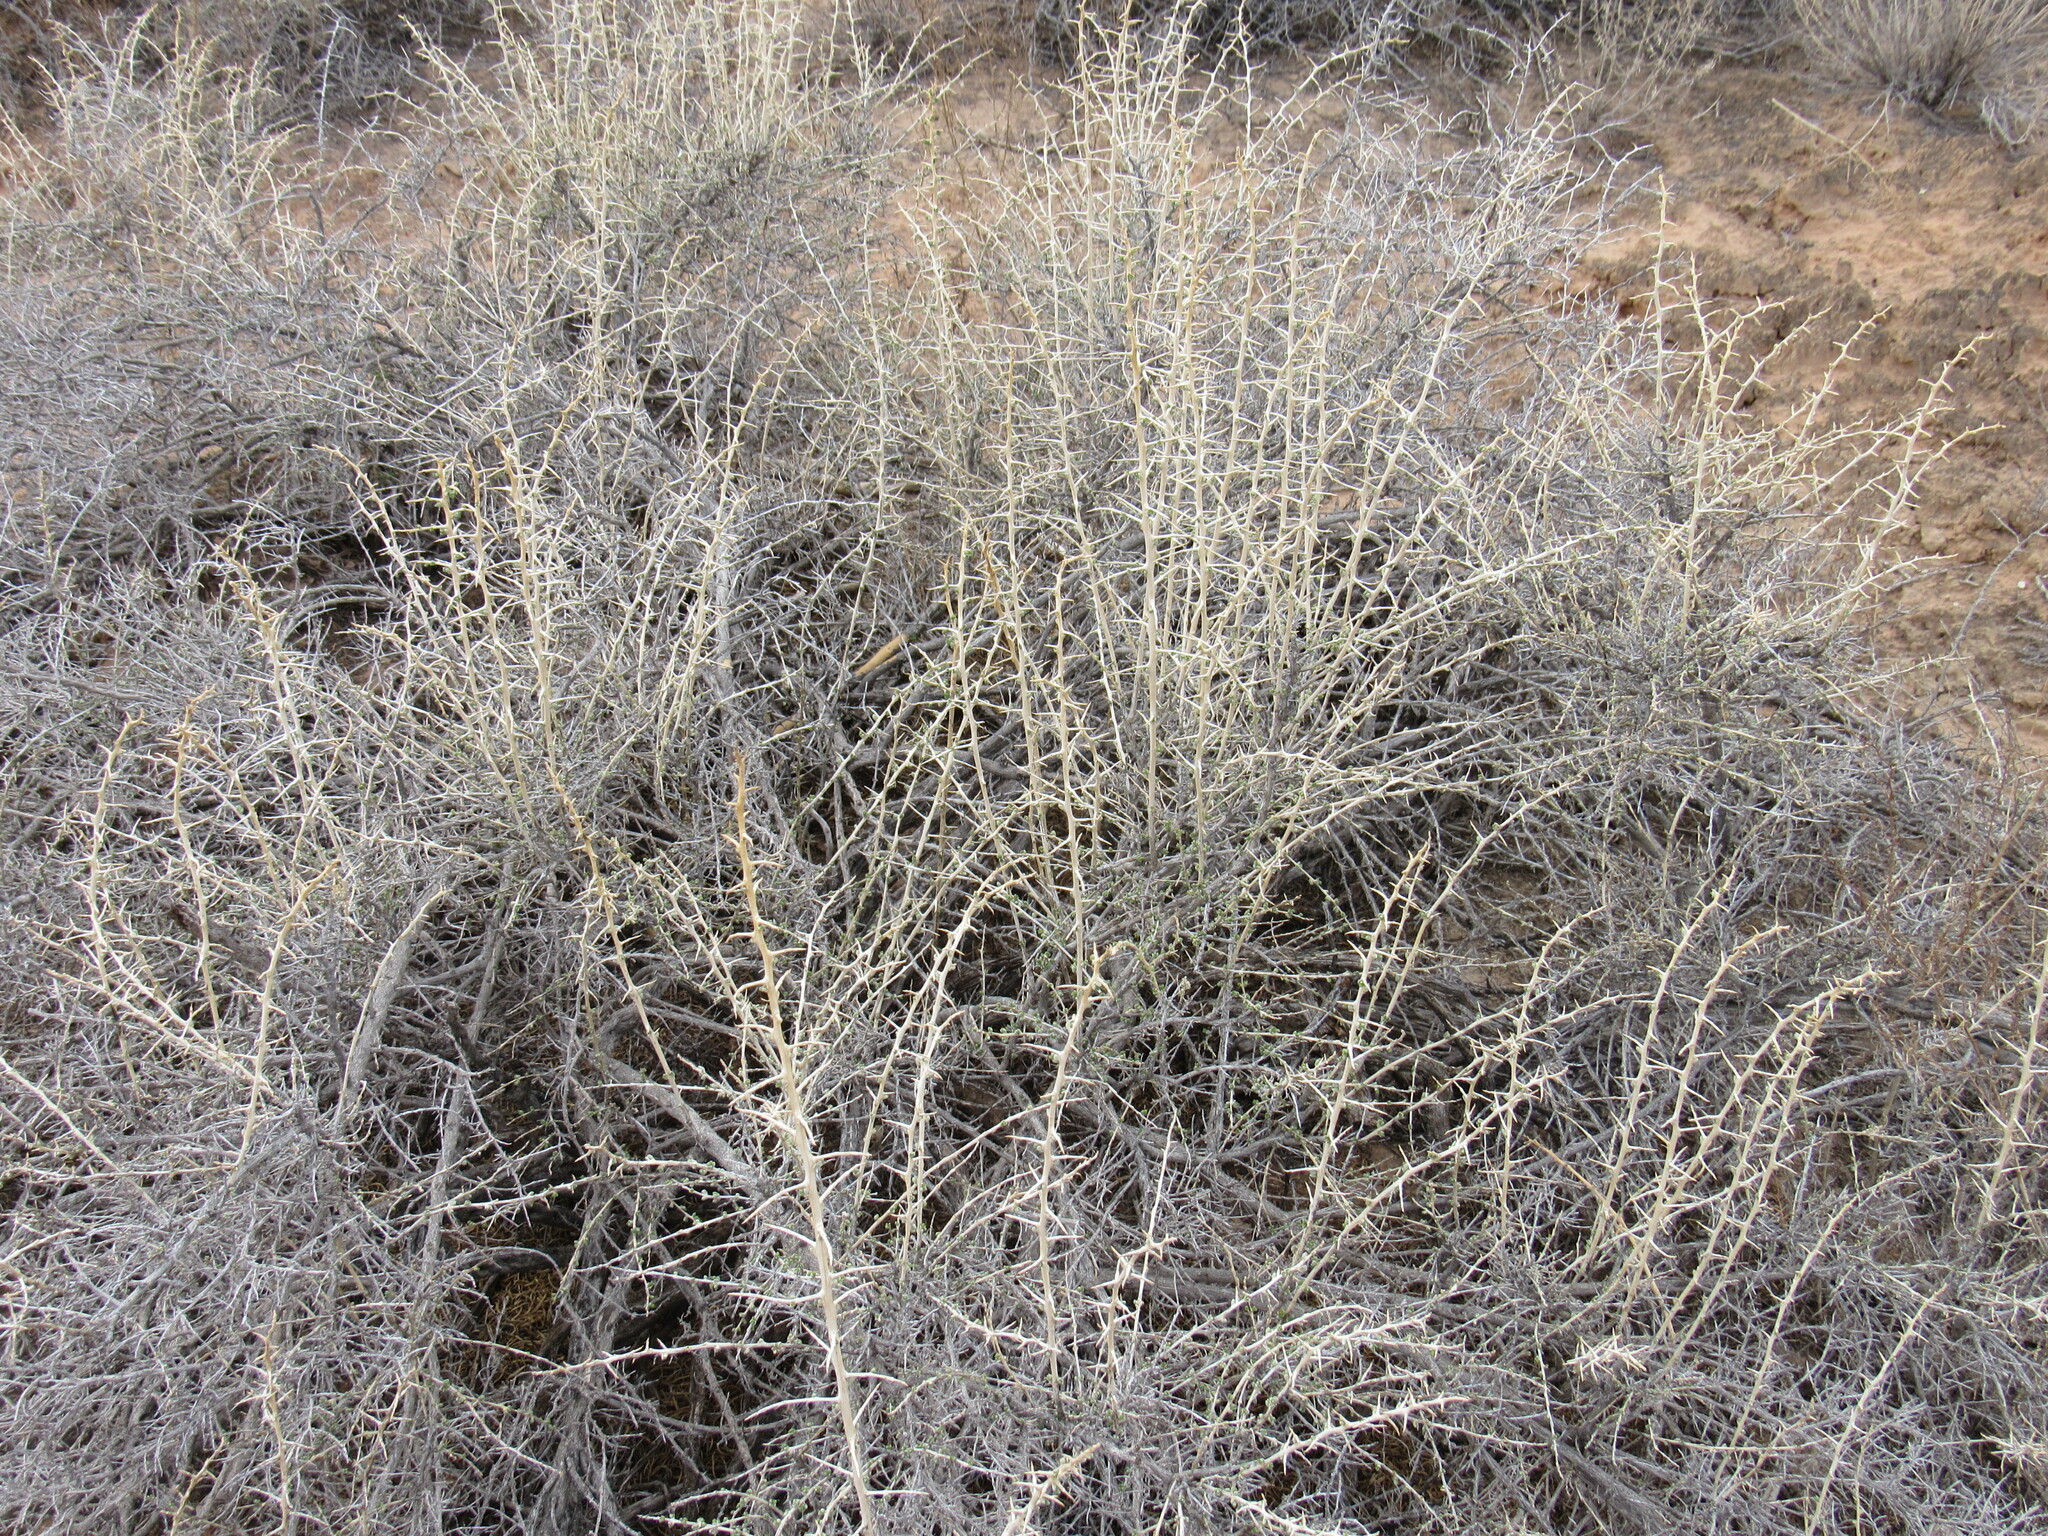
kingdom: Plantae
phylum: Tracheophyta
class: Magnoliopsida
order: Caryophyllales
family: Sarcobataceae
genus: Sarcobatus
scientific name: Sarcobatus vermiculatus
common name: Greasewood
